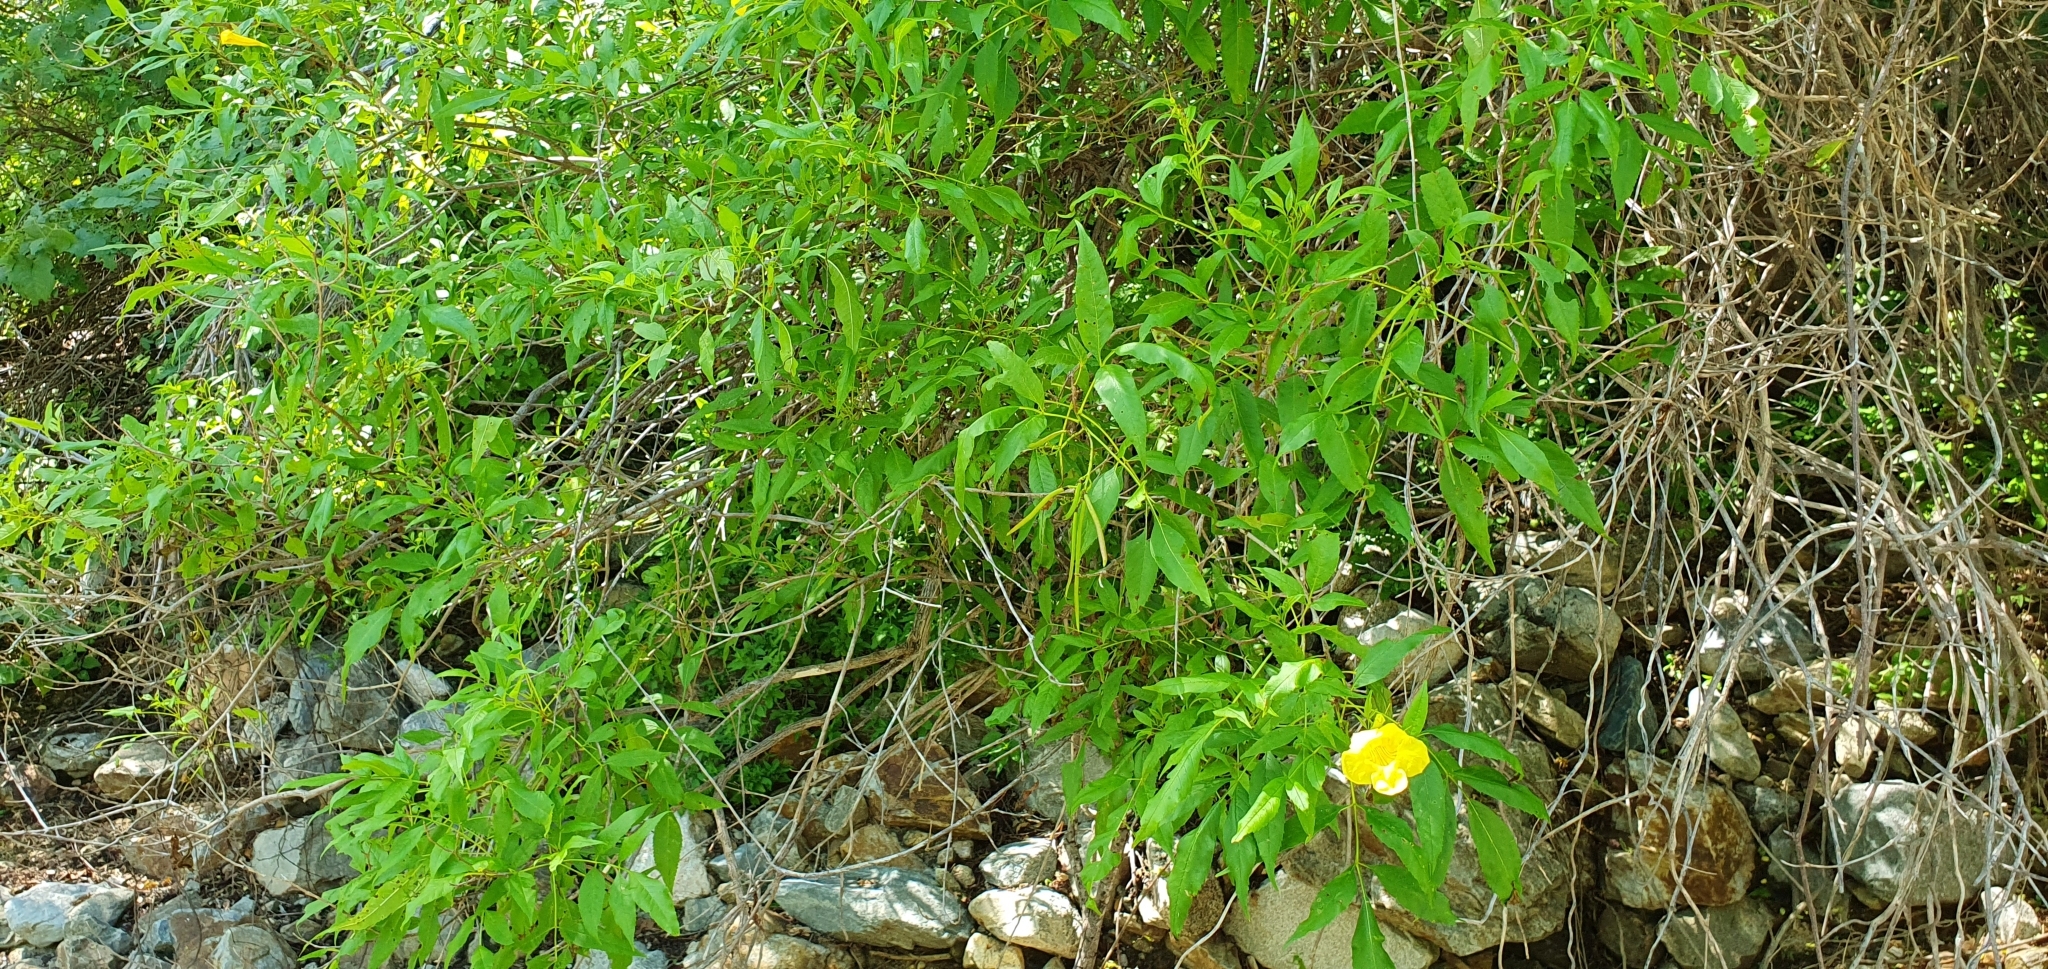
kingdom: Plantae
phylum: Tracheophyta
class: Magnoliopsida
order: Lamiales
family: Bignoniaceae
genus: Tecoma
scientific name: Tecoma stans
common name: Yellow trumpetbush
